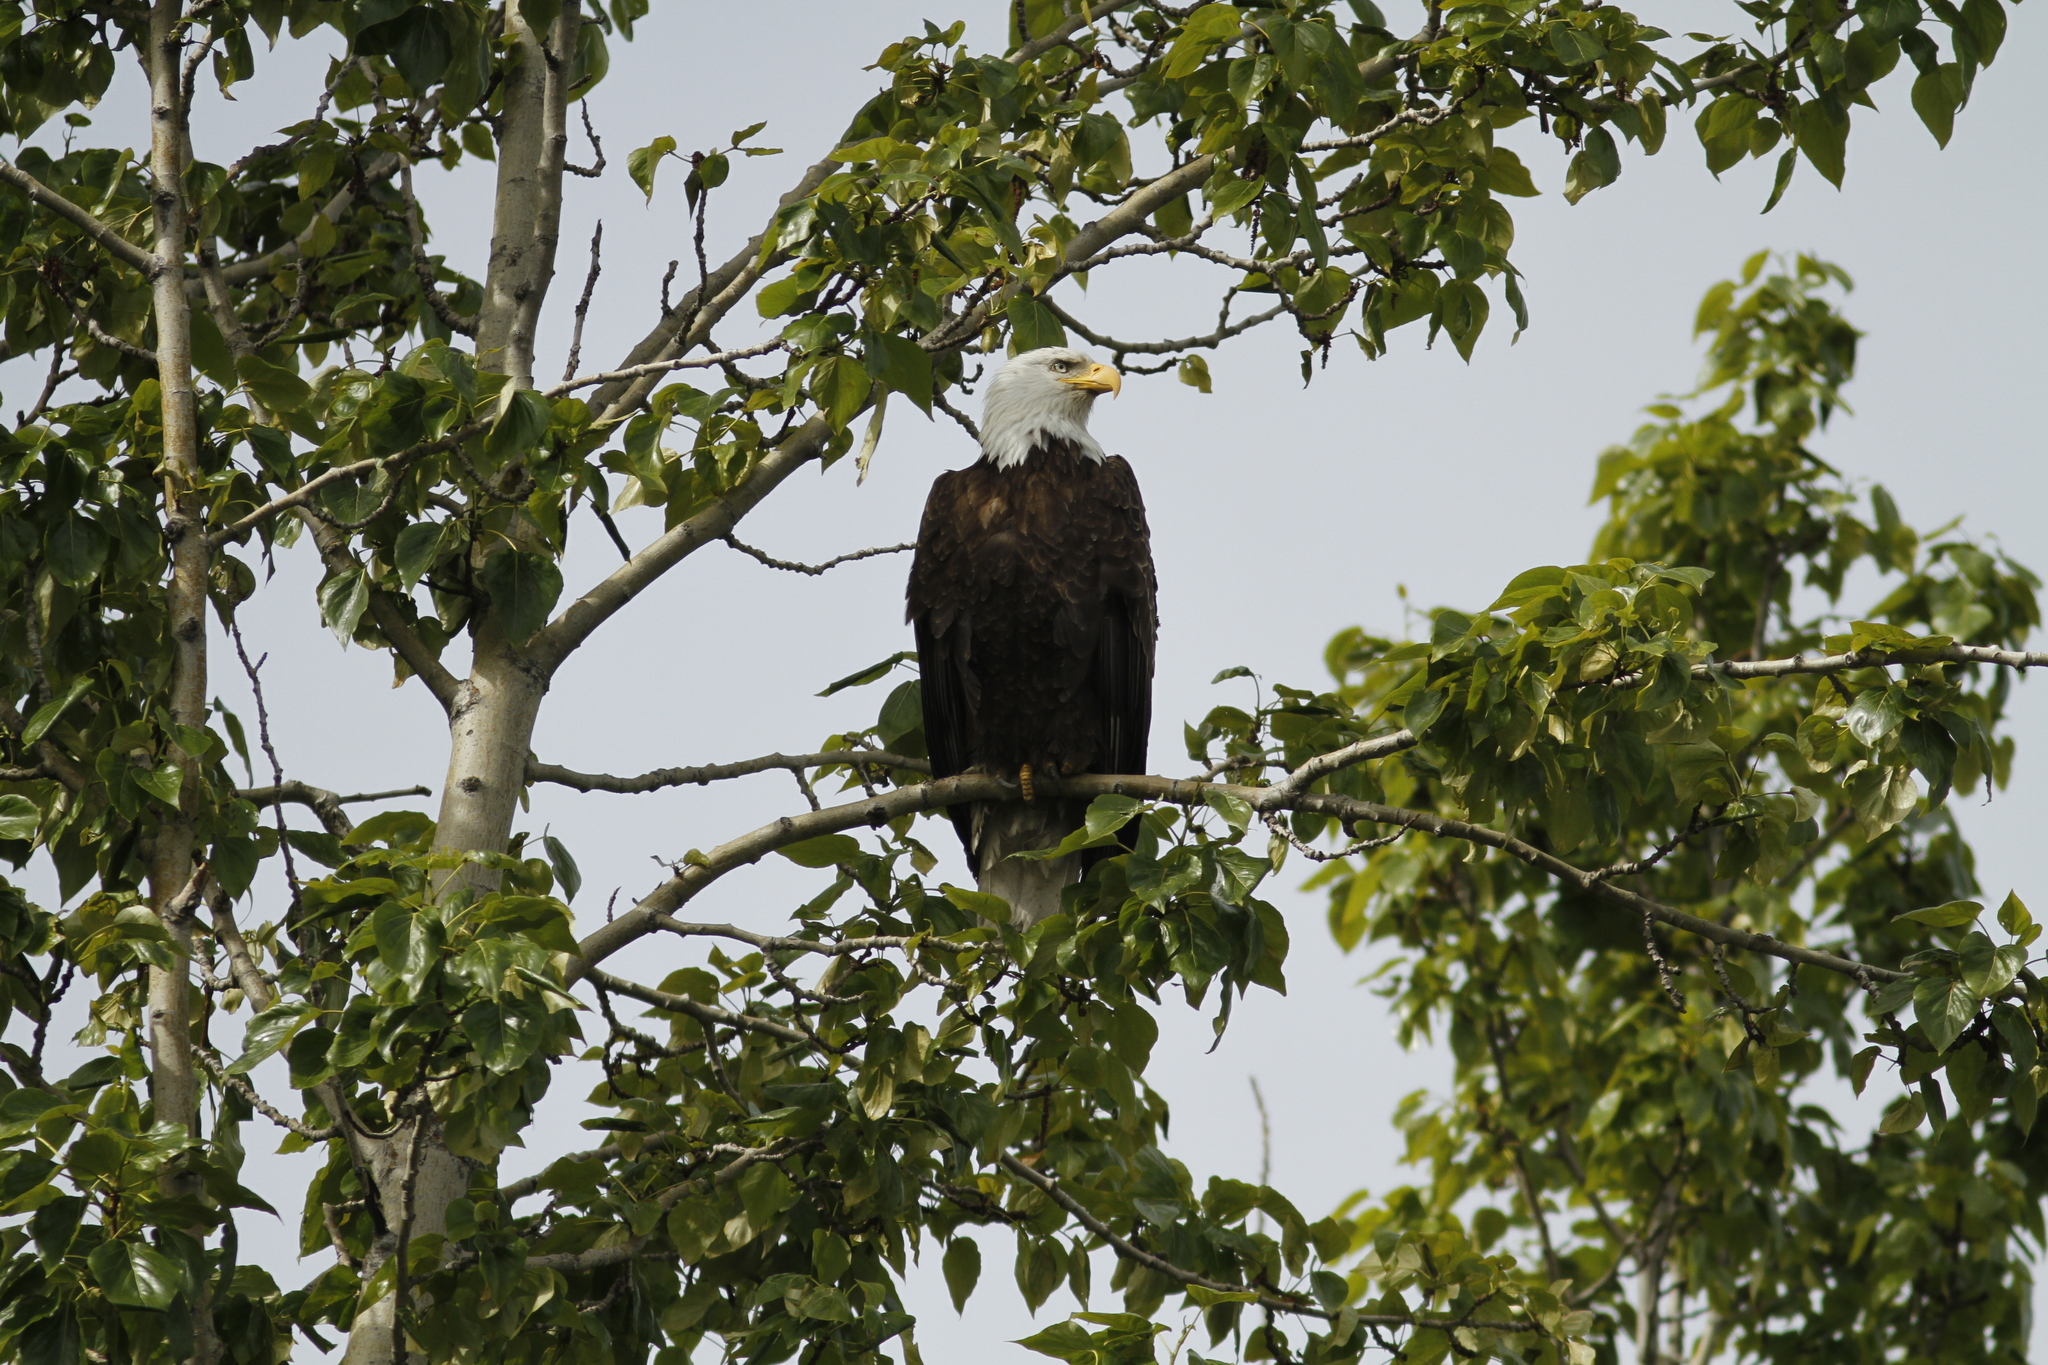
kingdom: Animalia
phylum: Chordata
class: Aves
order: Accipitriformes
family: Accipitridae
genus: Haliaeetus
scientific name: Haliaeetus leucocephalus
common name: Bald eagle
